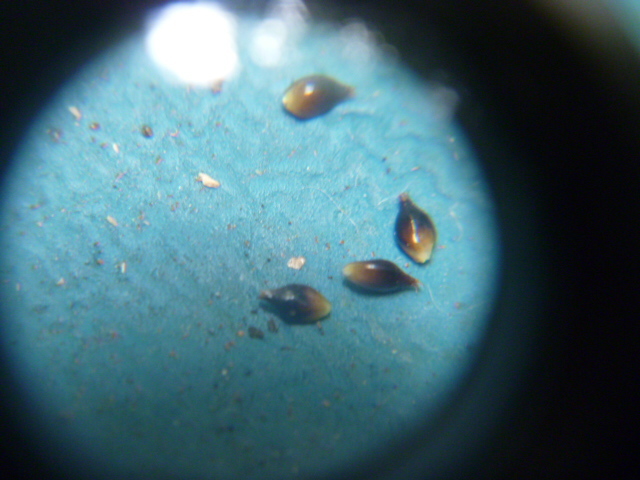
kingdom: Plantae
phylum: Tracheophyta
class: Liliopsida
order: Poales
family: Cyperaceae
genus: Carex
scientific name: Carex dissita
